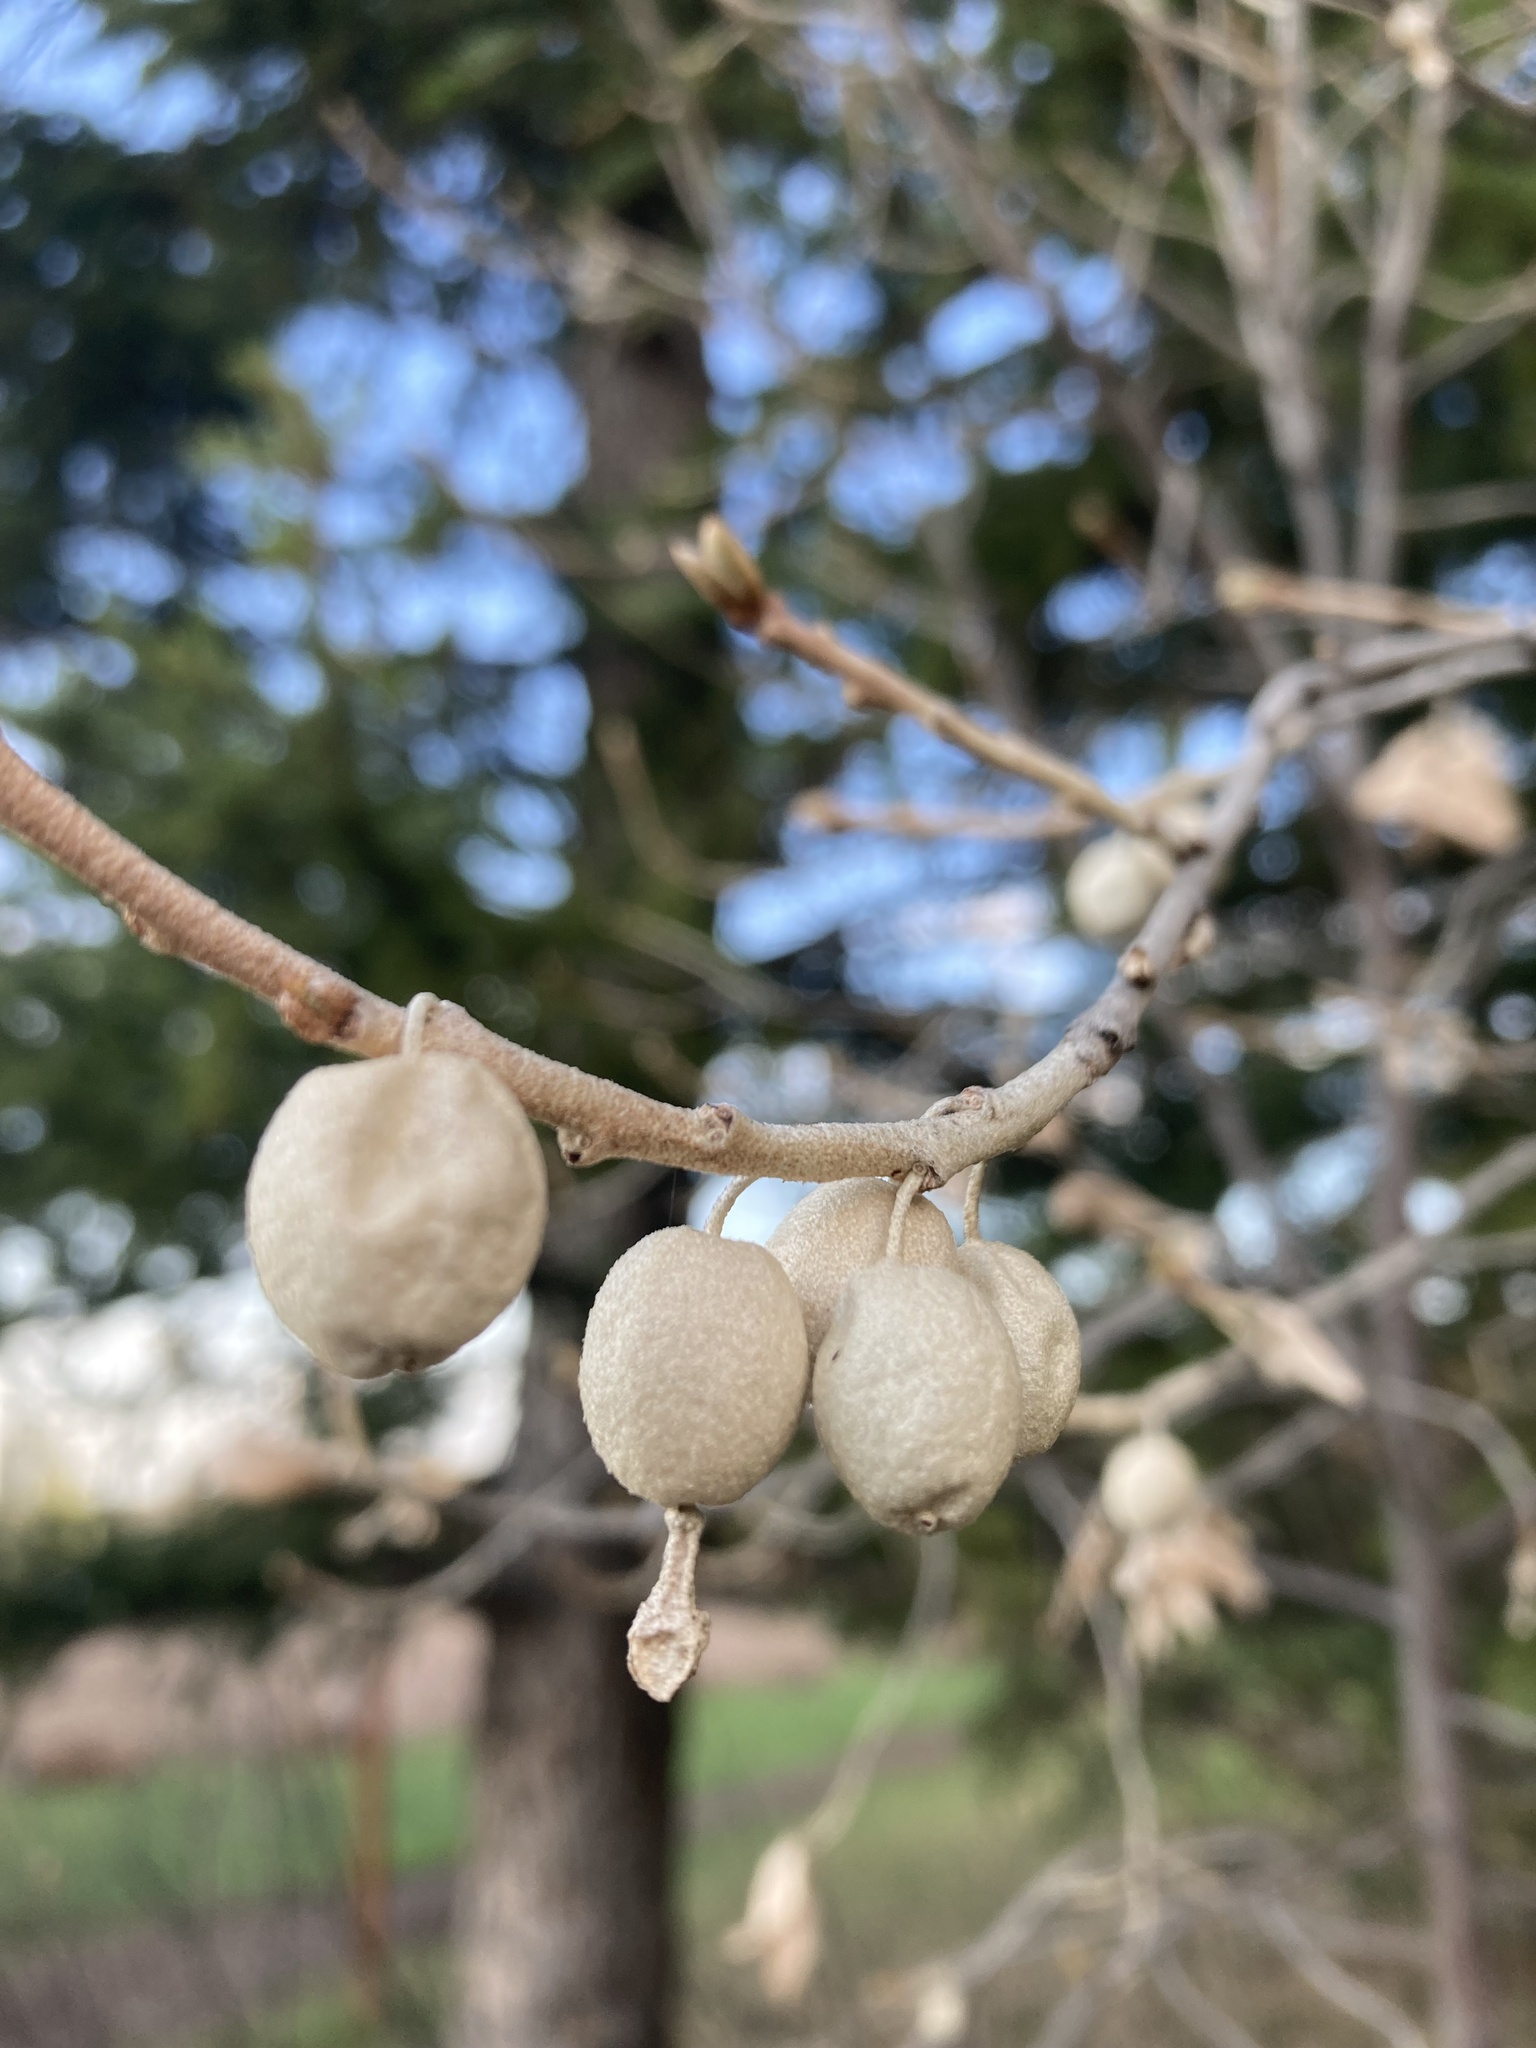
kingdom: Plantae
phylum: Tracheophyta
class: Magnoliopsida
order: Rosales
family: Elaeagnaceae
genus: Elaeagnus
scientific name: Elaeagnus commutata
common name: Silverberry
